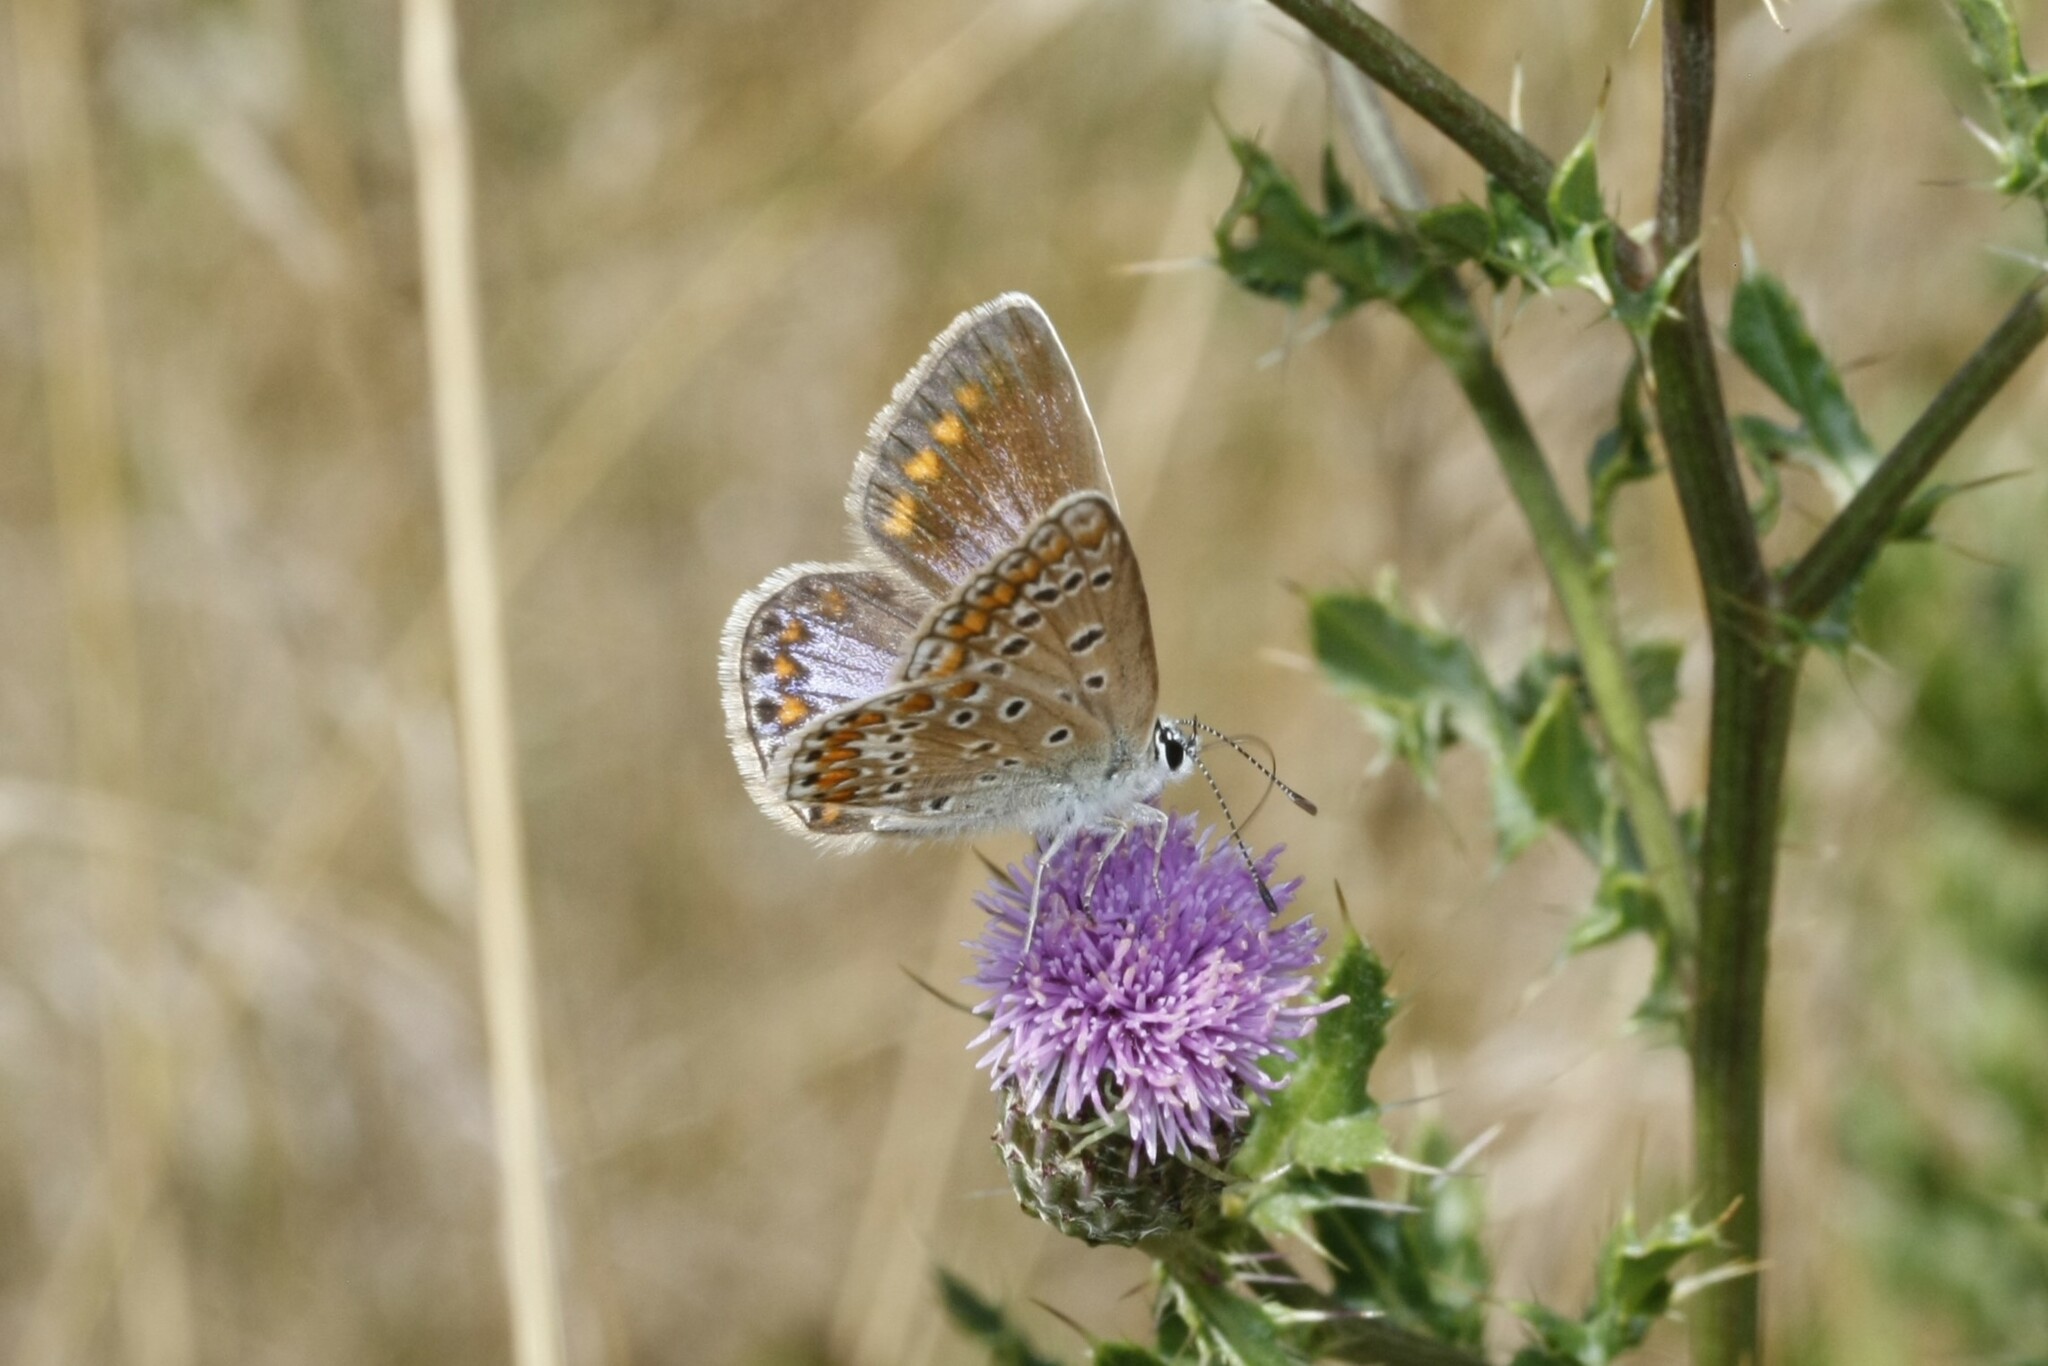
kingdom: Animalia
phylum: Arthropoda
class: Insecta
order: Lepidoptera
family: Lycaenidae
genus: Polyommatus
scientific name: Polyommatus icarus
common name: Common blue
